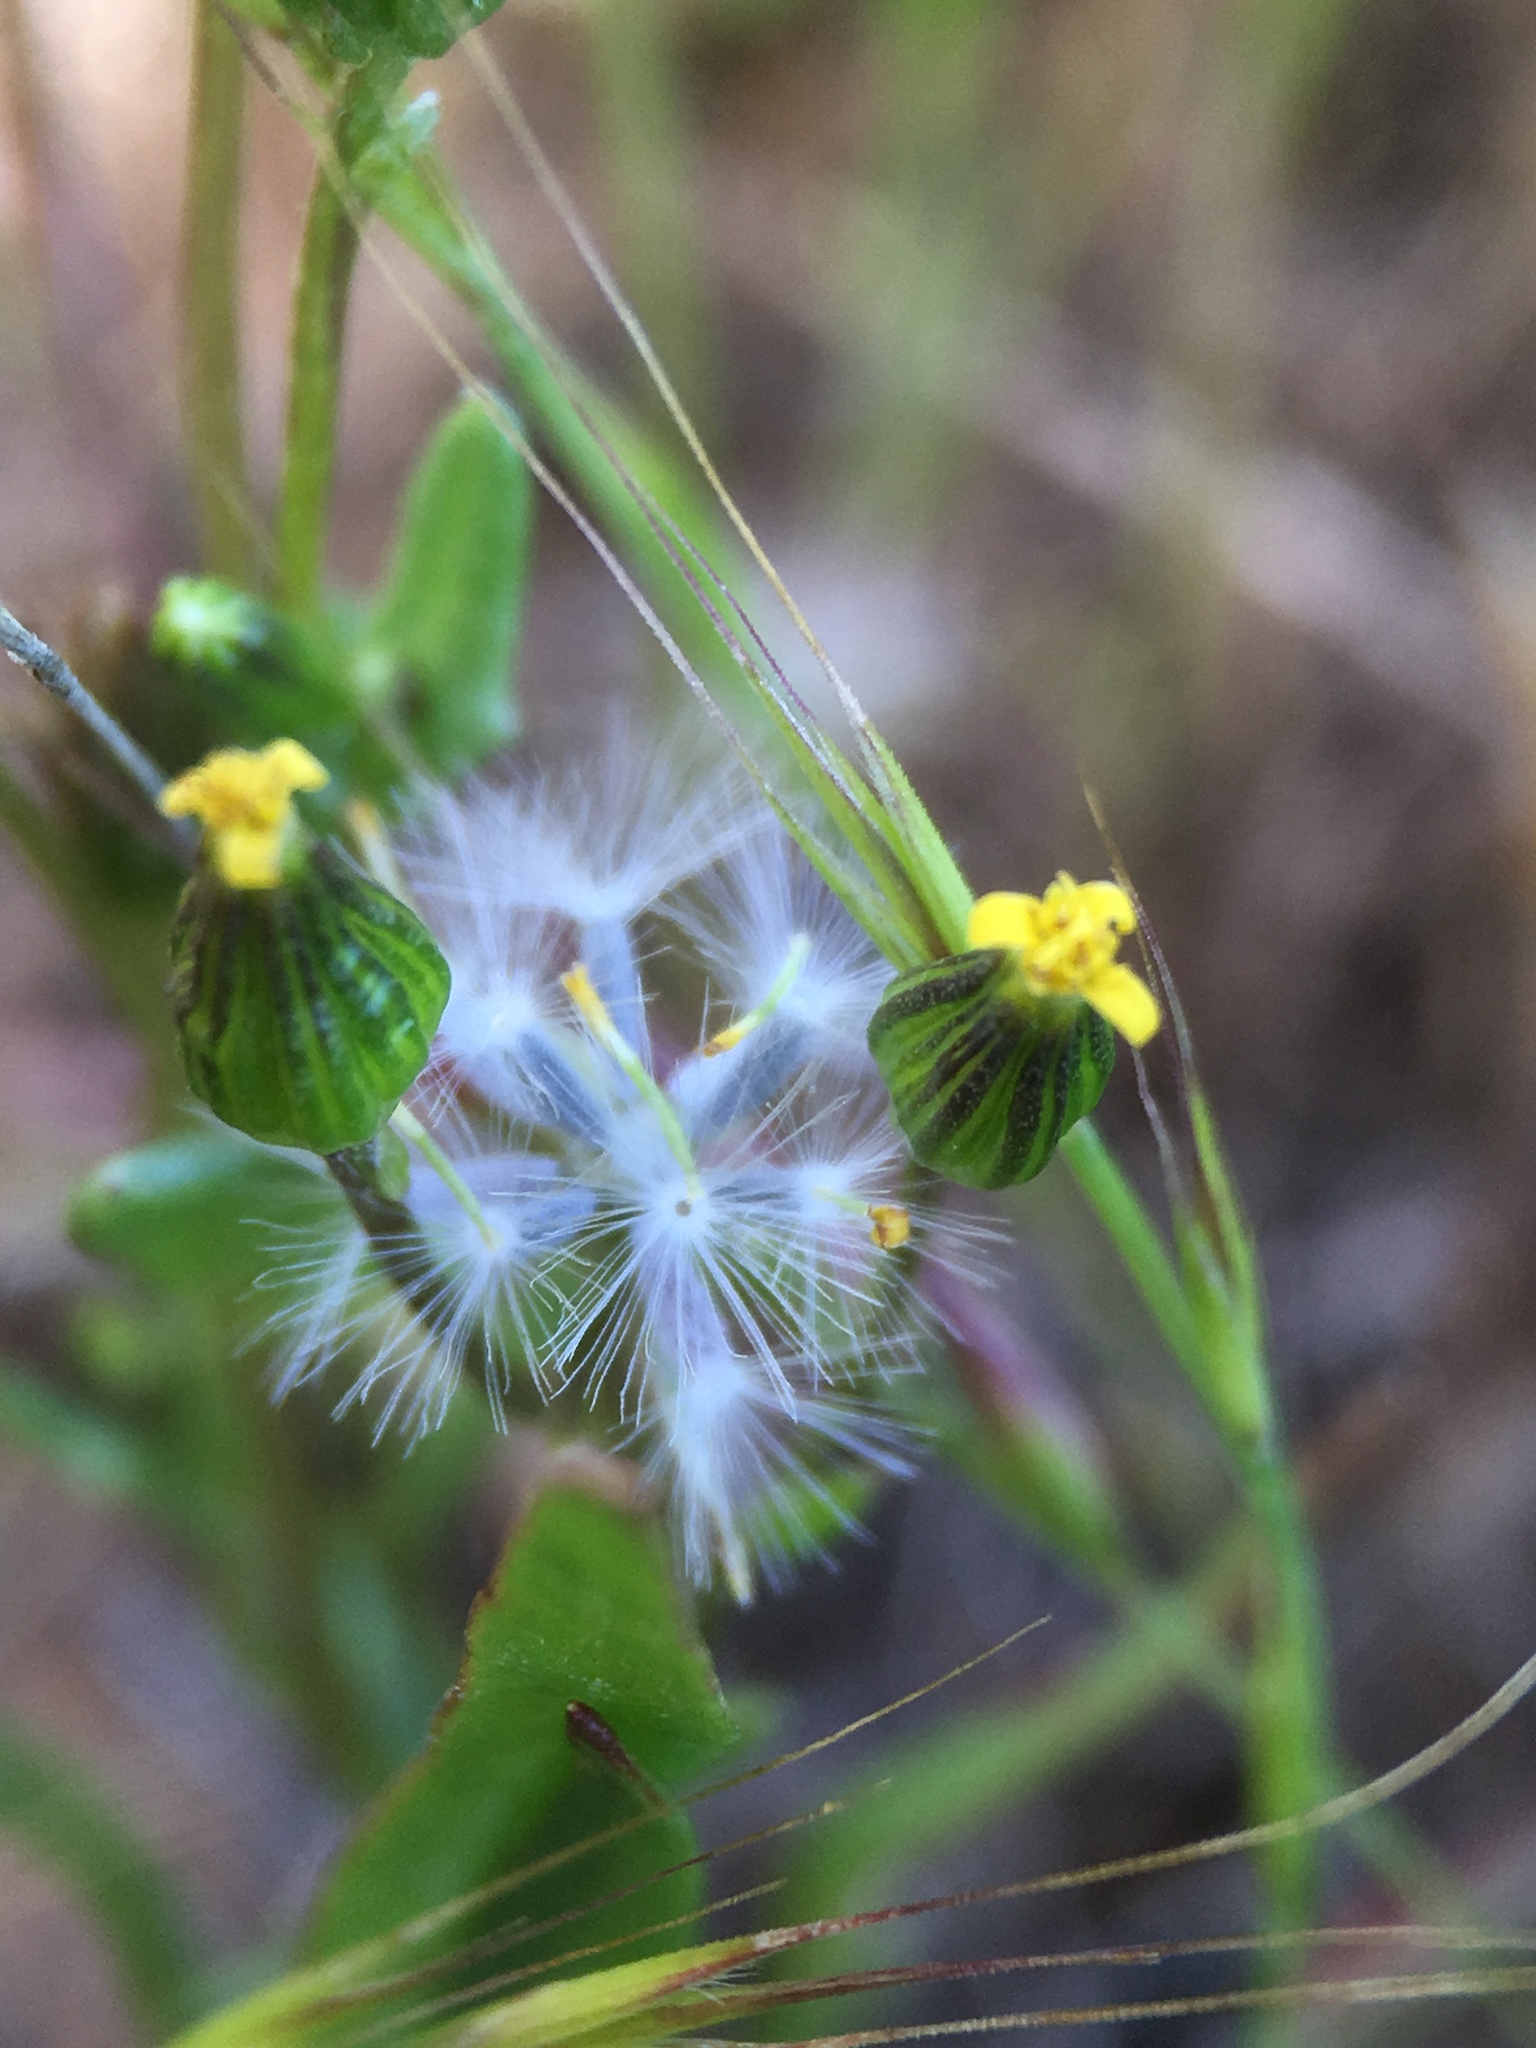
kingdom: Plantae
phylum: Tracheophyta
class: Magnoliopsida
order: Asterales
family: Asteraceae
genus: Senecio
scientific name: Senecio aphanactis
